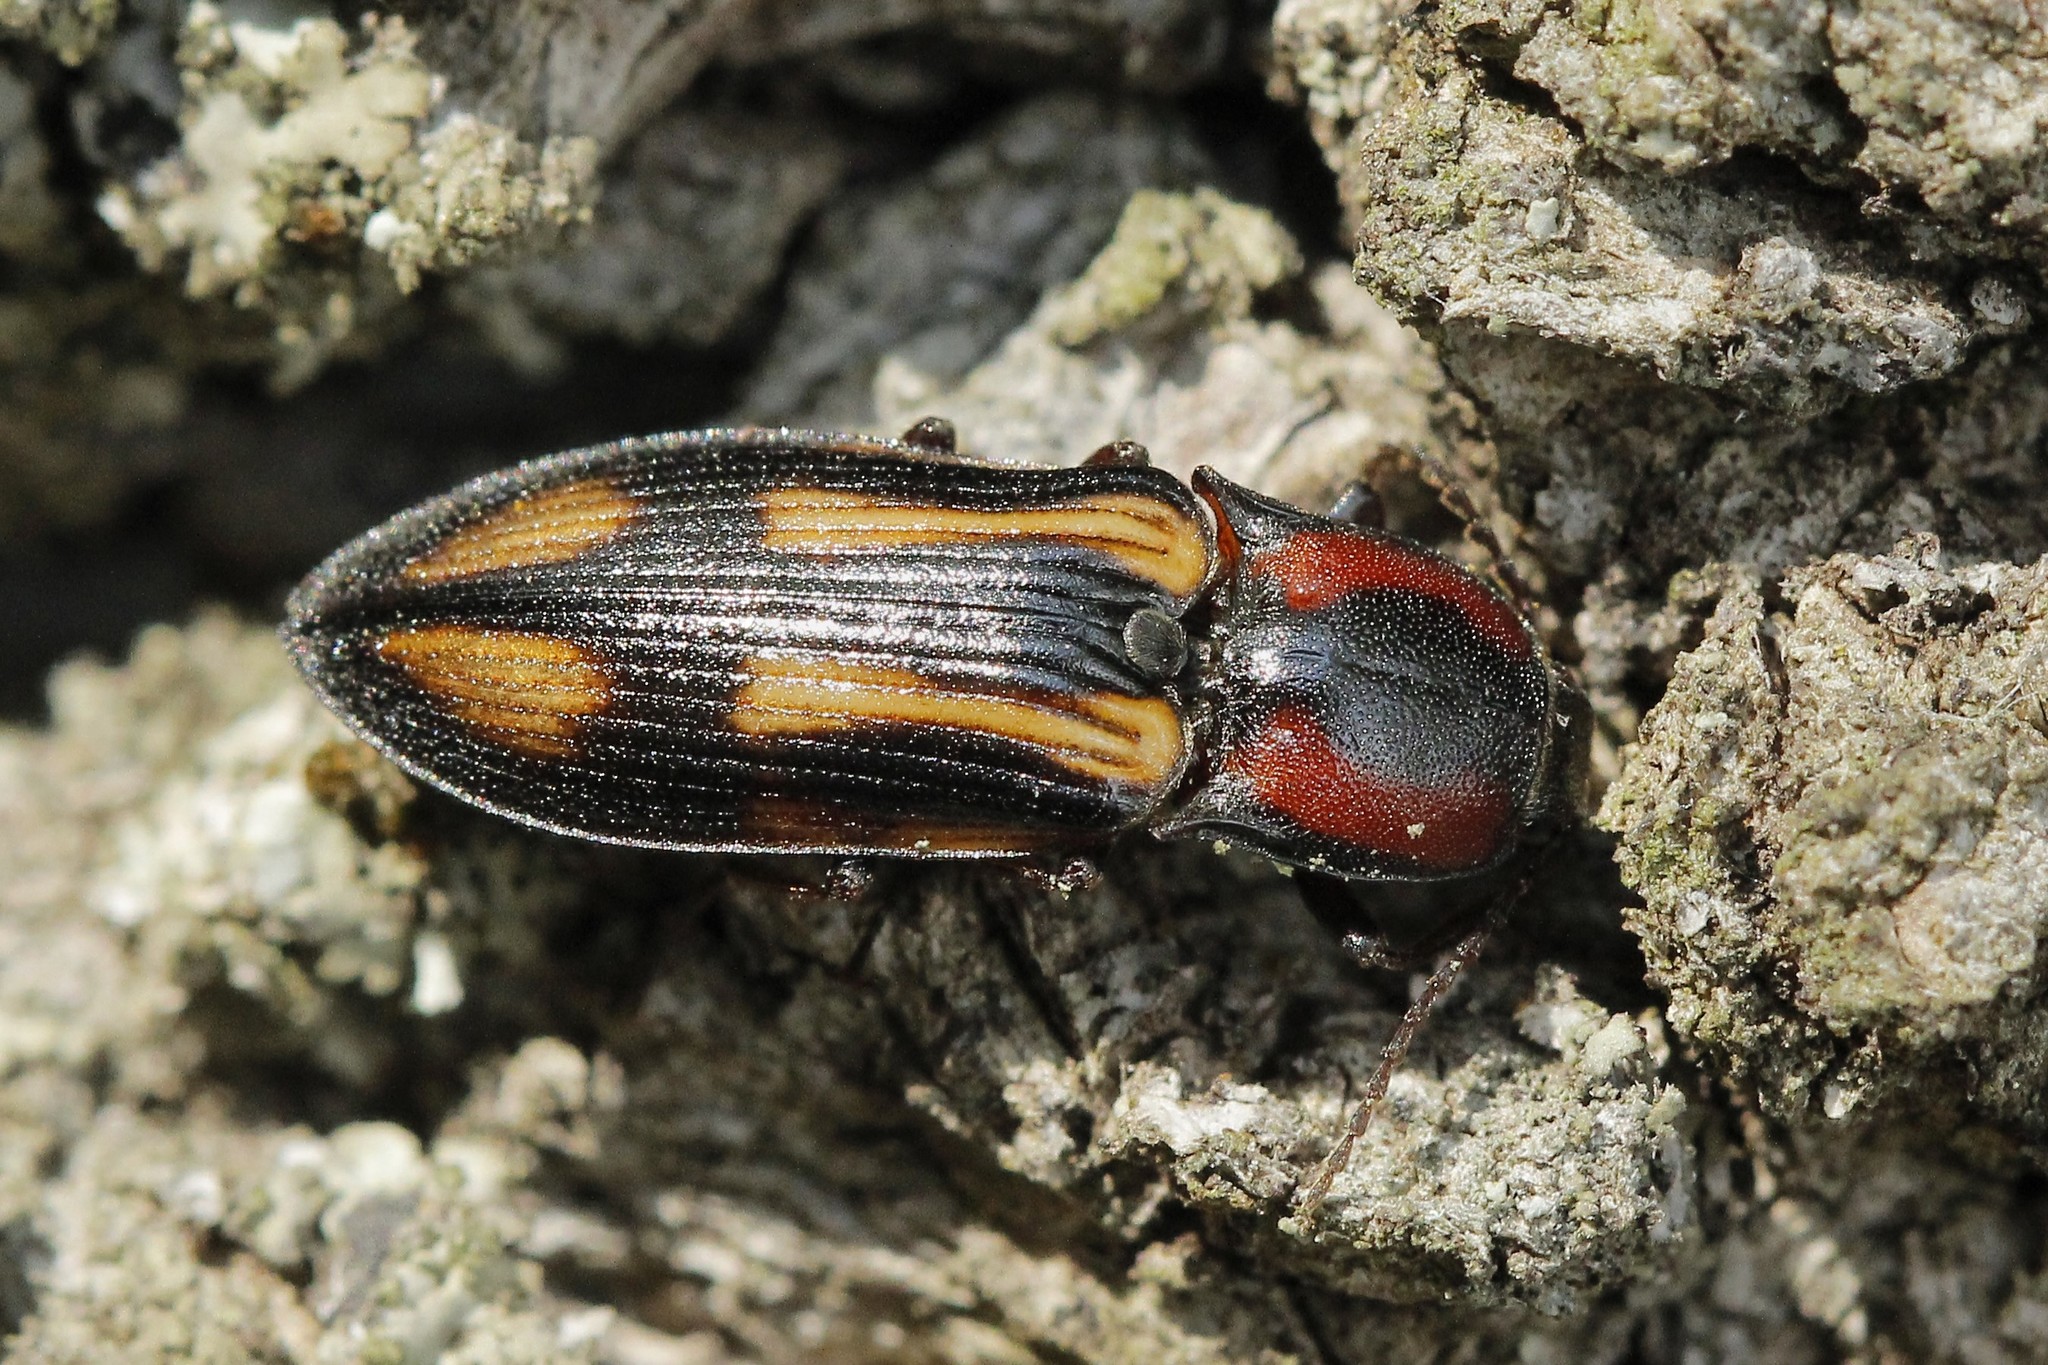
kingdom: Animalia
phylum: Arthropoda
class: Insecta
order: Coleoptera
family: Elateridae
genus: Selatosomus
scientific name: Selatosomus cruciatus
